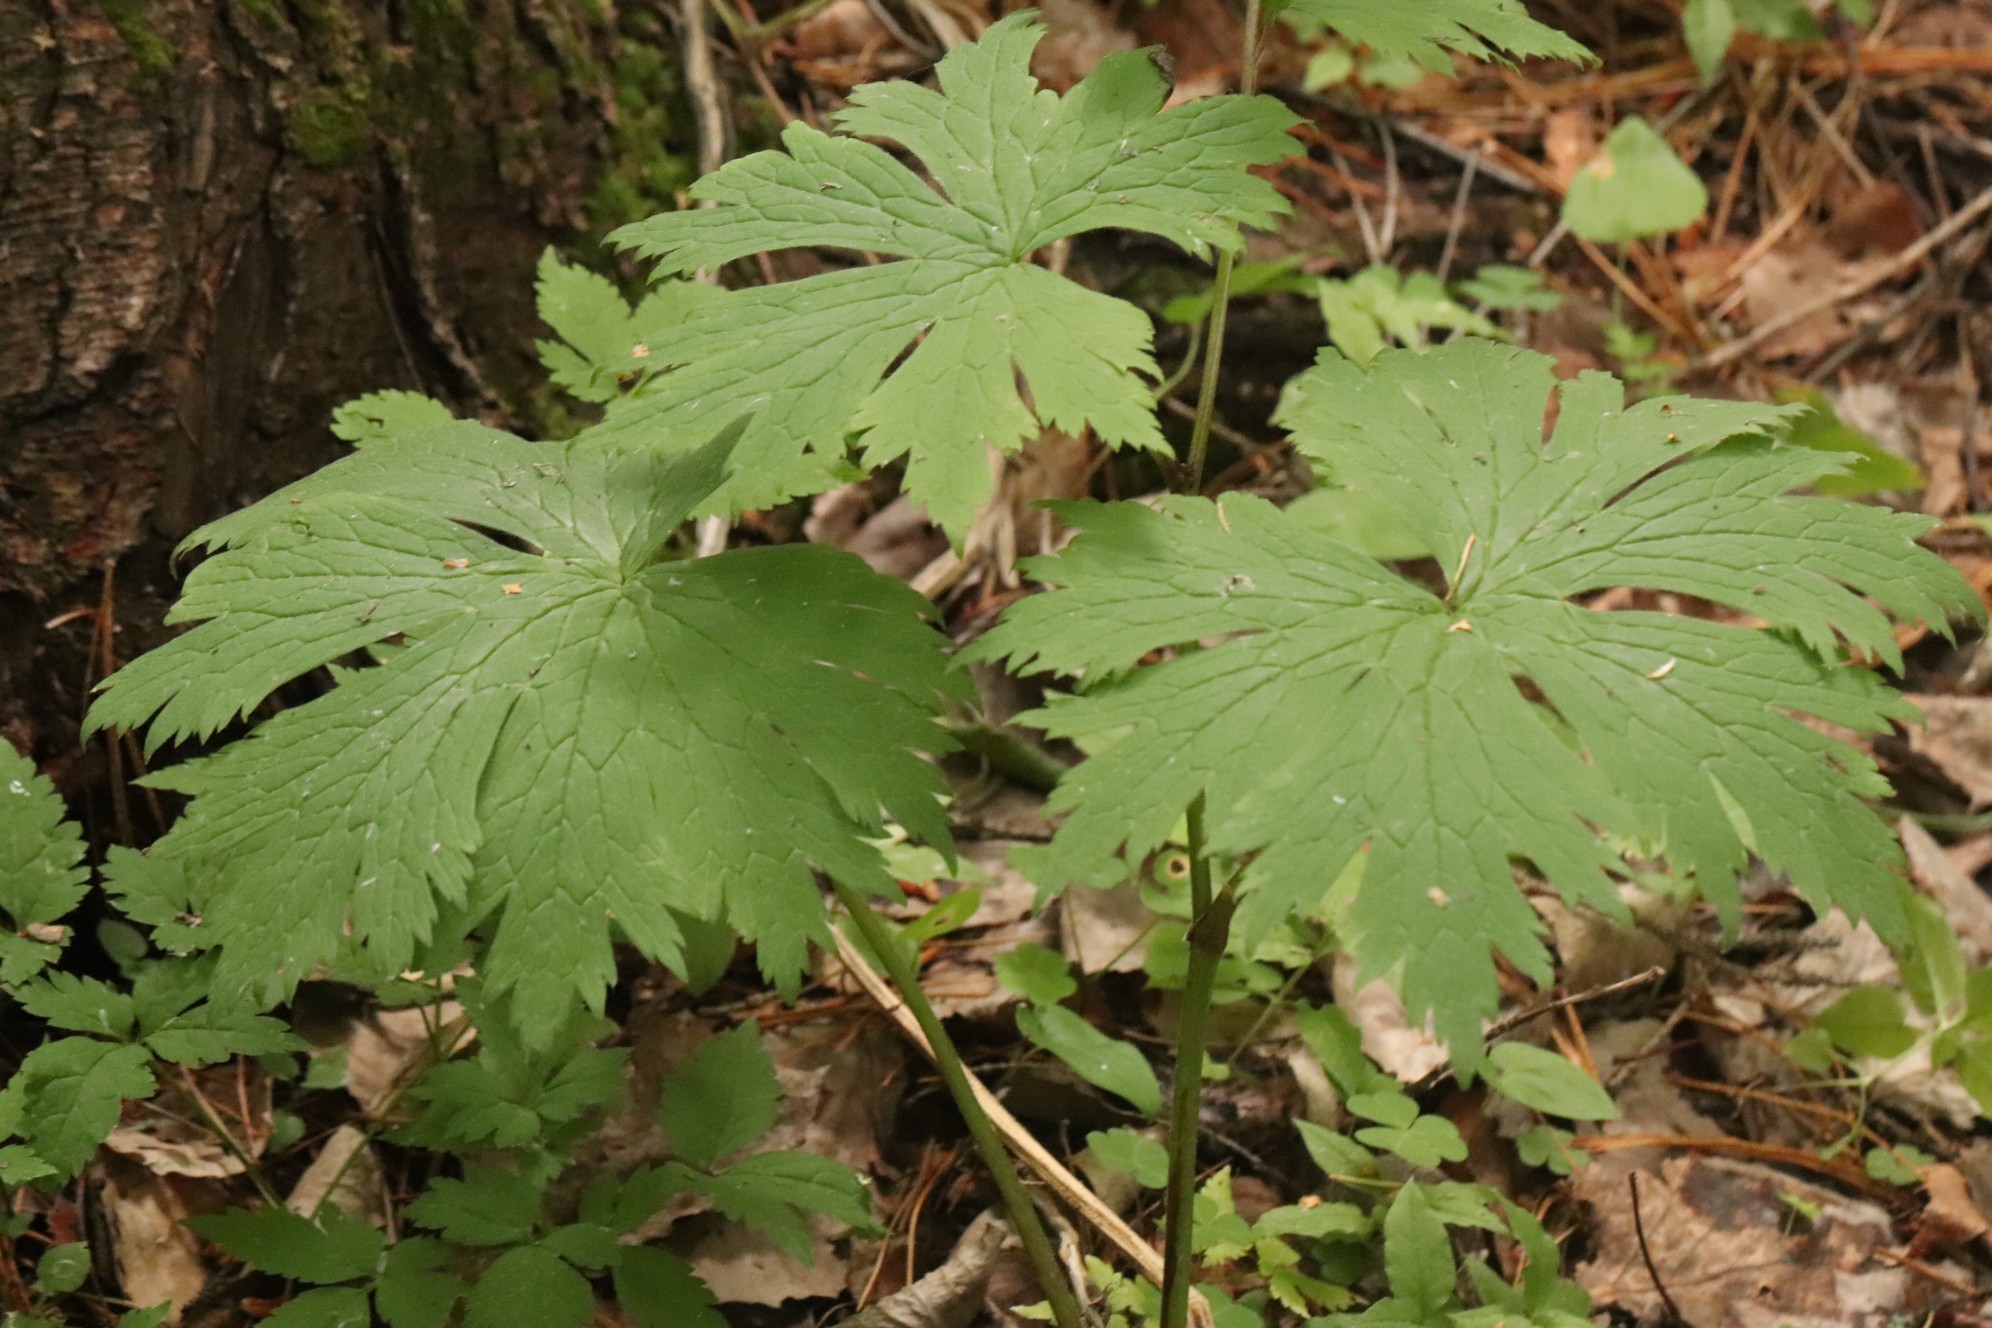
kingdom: Plantae
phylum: Tracheophyta
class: Magnoliopsida
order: Ranunculales
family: Ranunculaceae
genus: Aconitum
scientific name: Aconitum septentrionale
